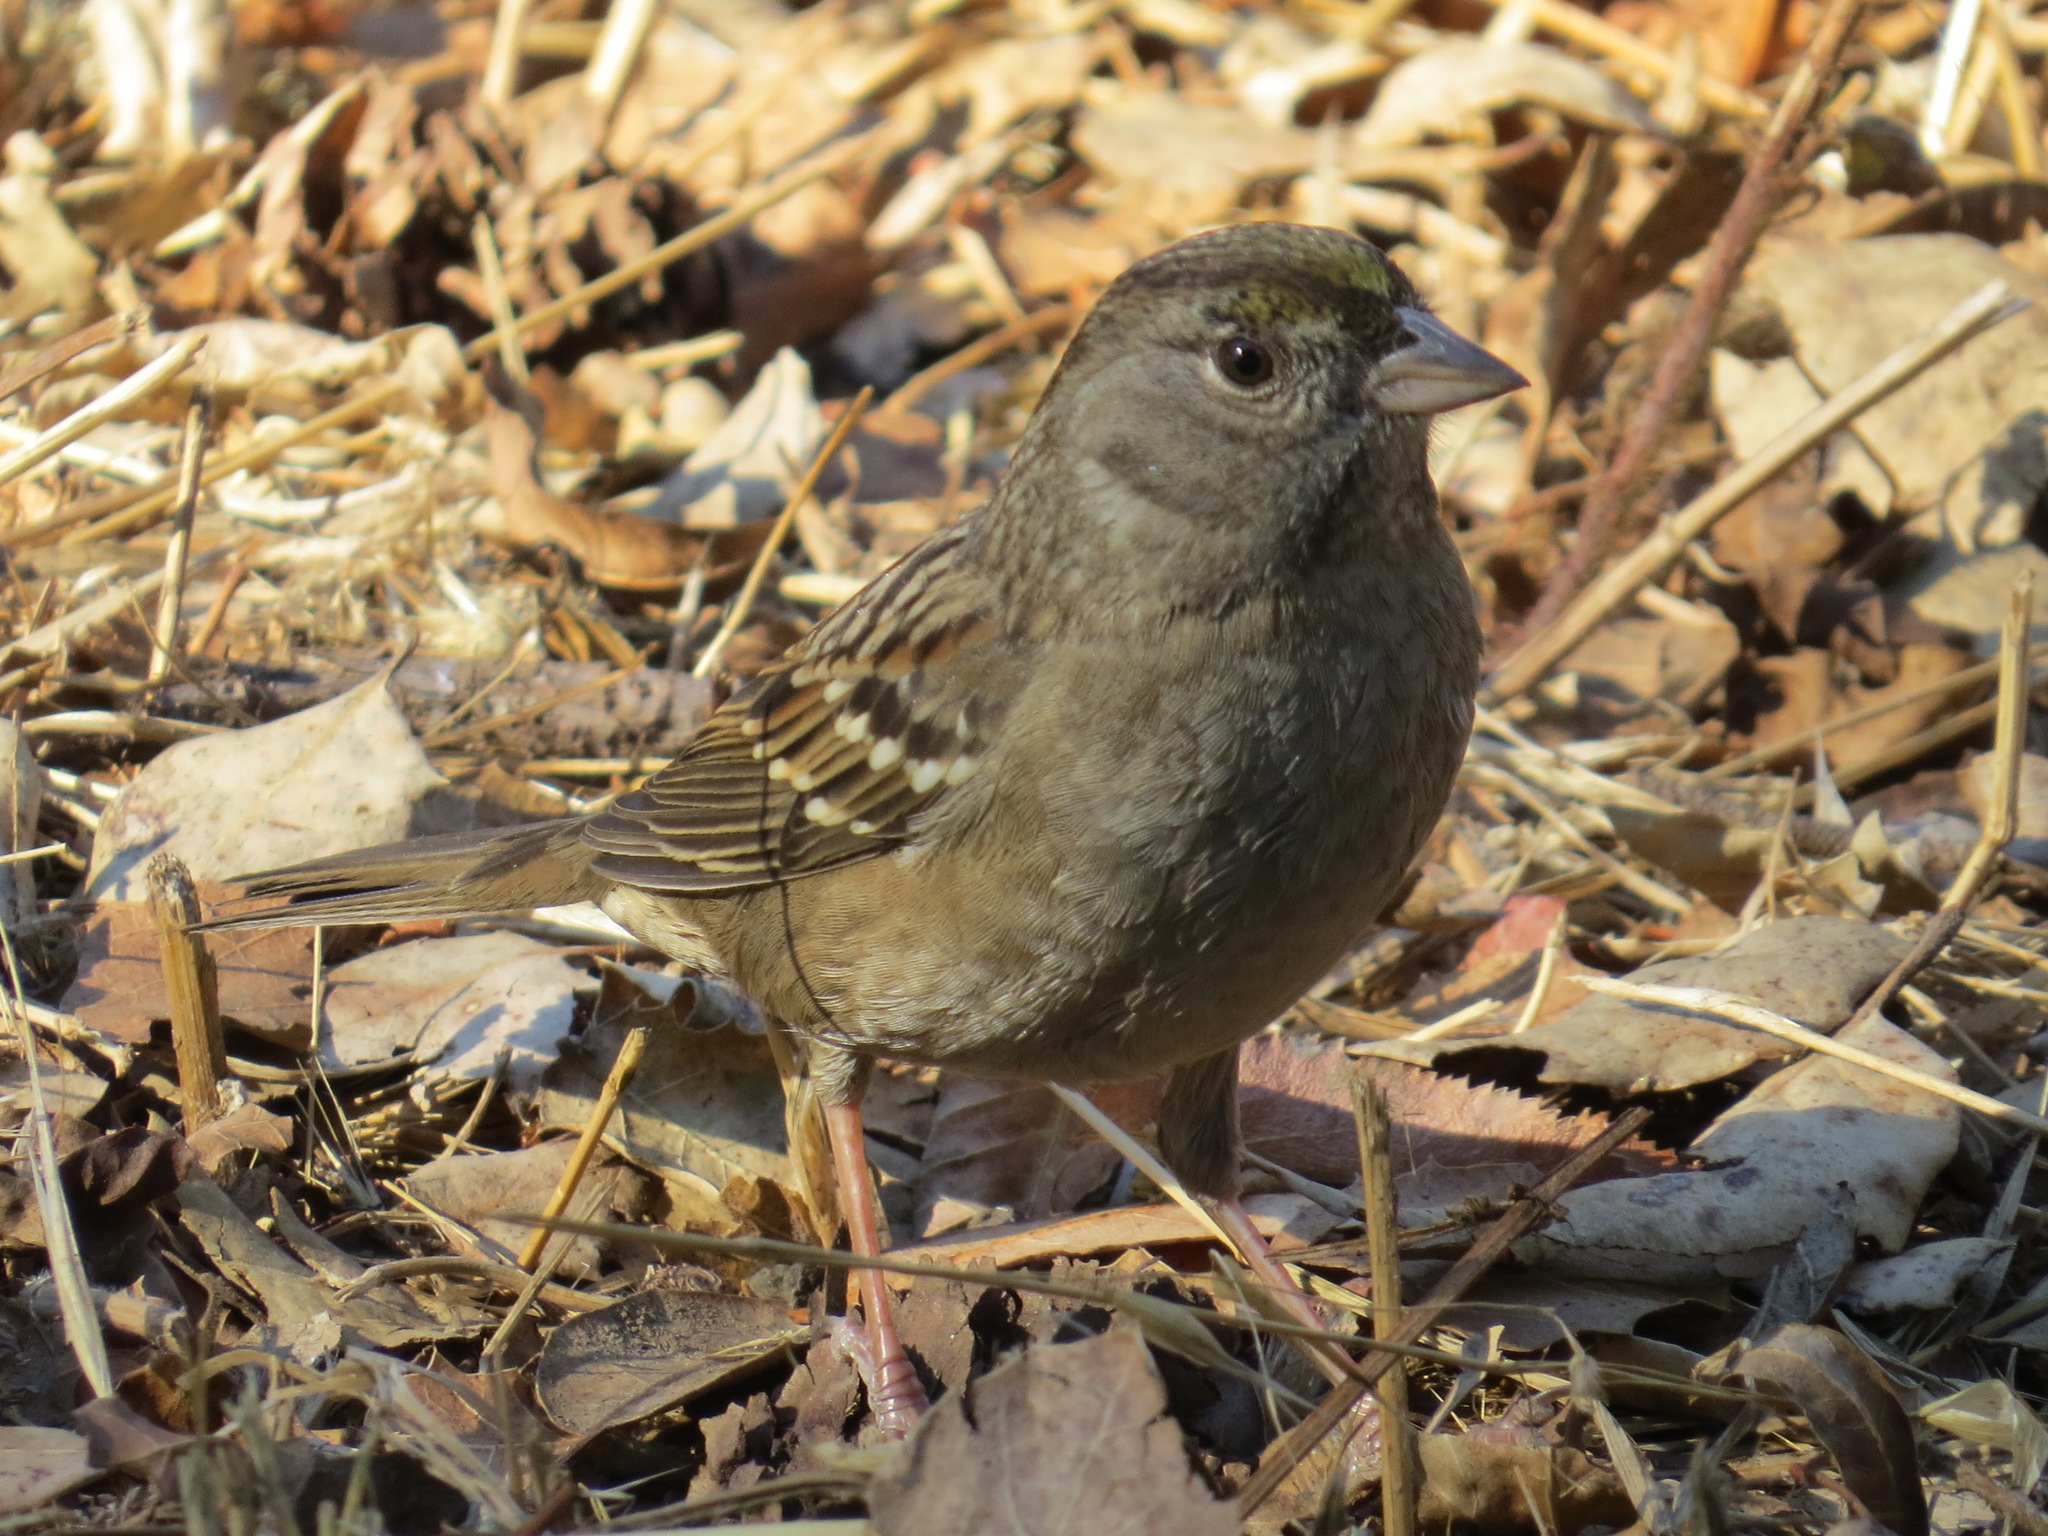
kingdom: Animalia
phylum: Chordata
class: Aves
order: Passeriformes
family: Passerellidae
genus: Zonotrichia
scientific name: Zonotrichia atricapilla
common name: Golden-crowned sparrow
